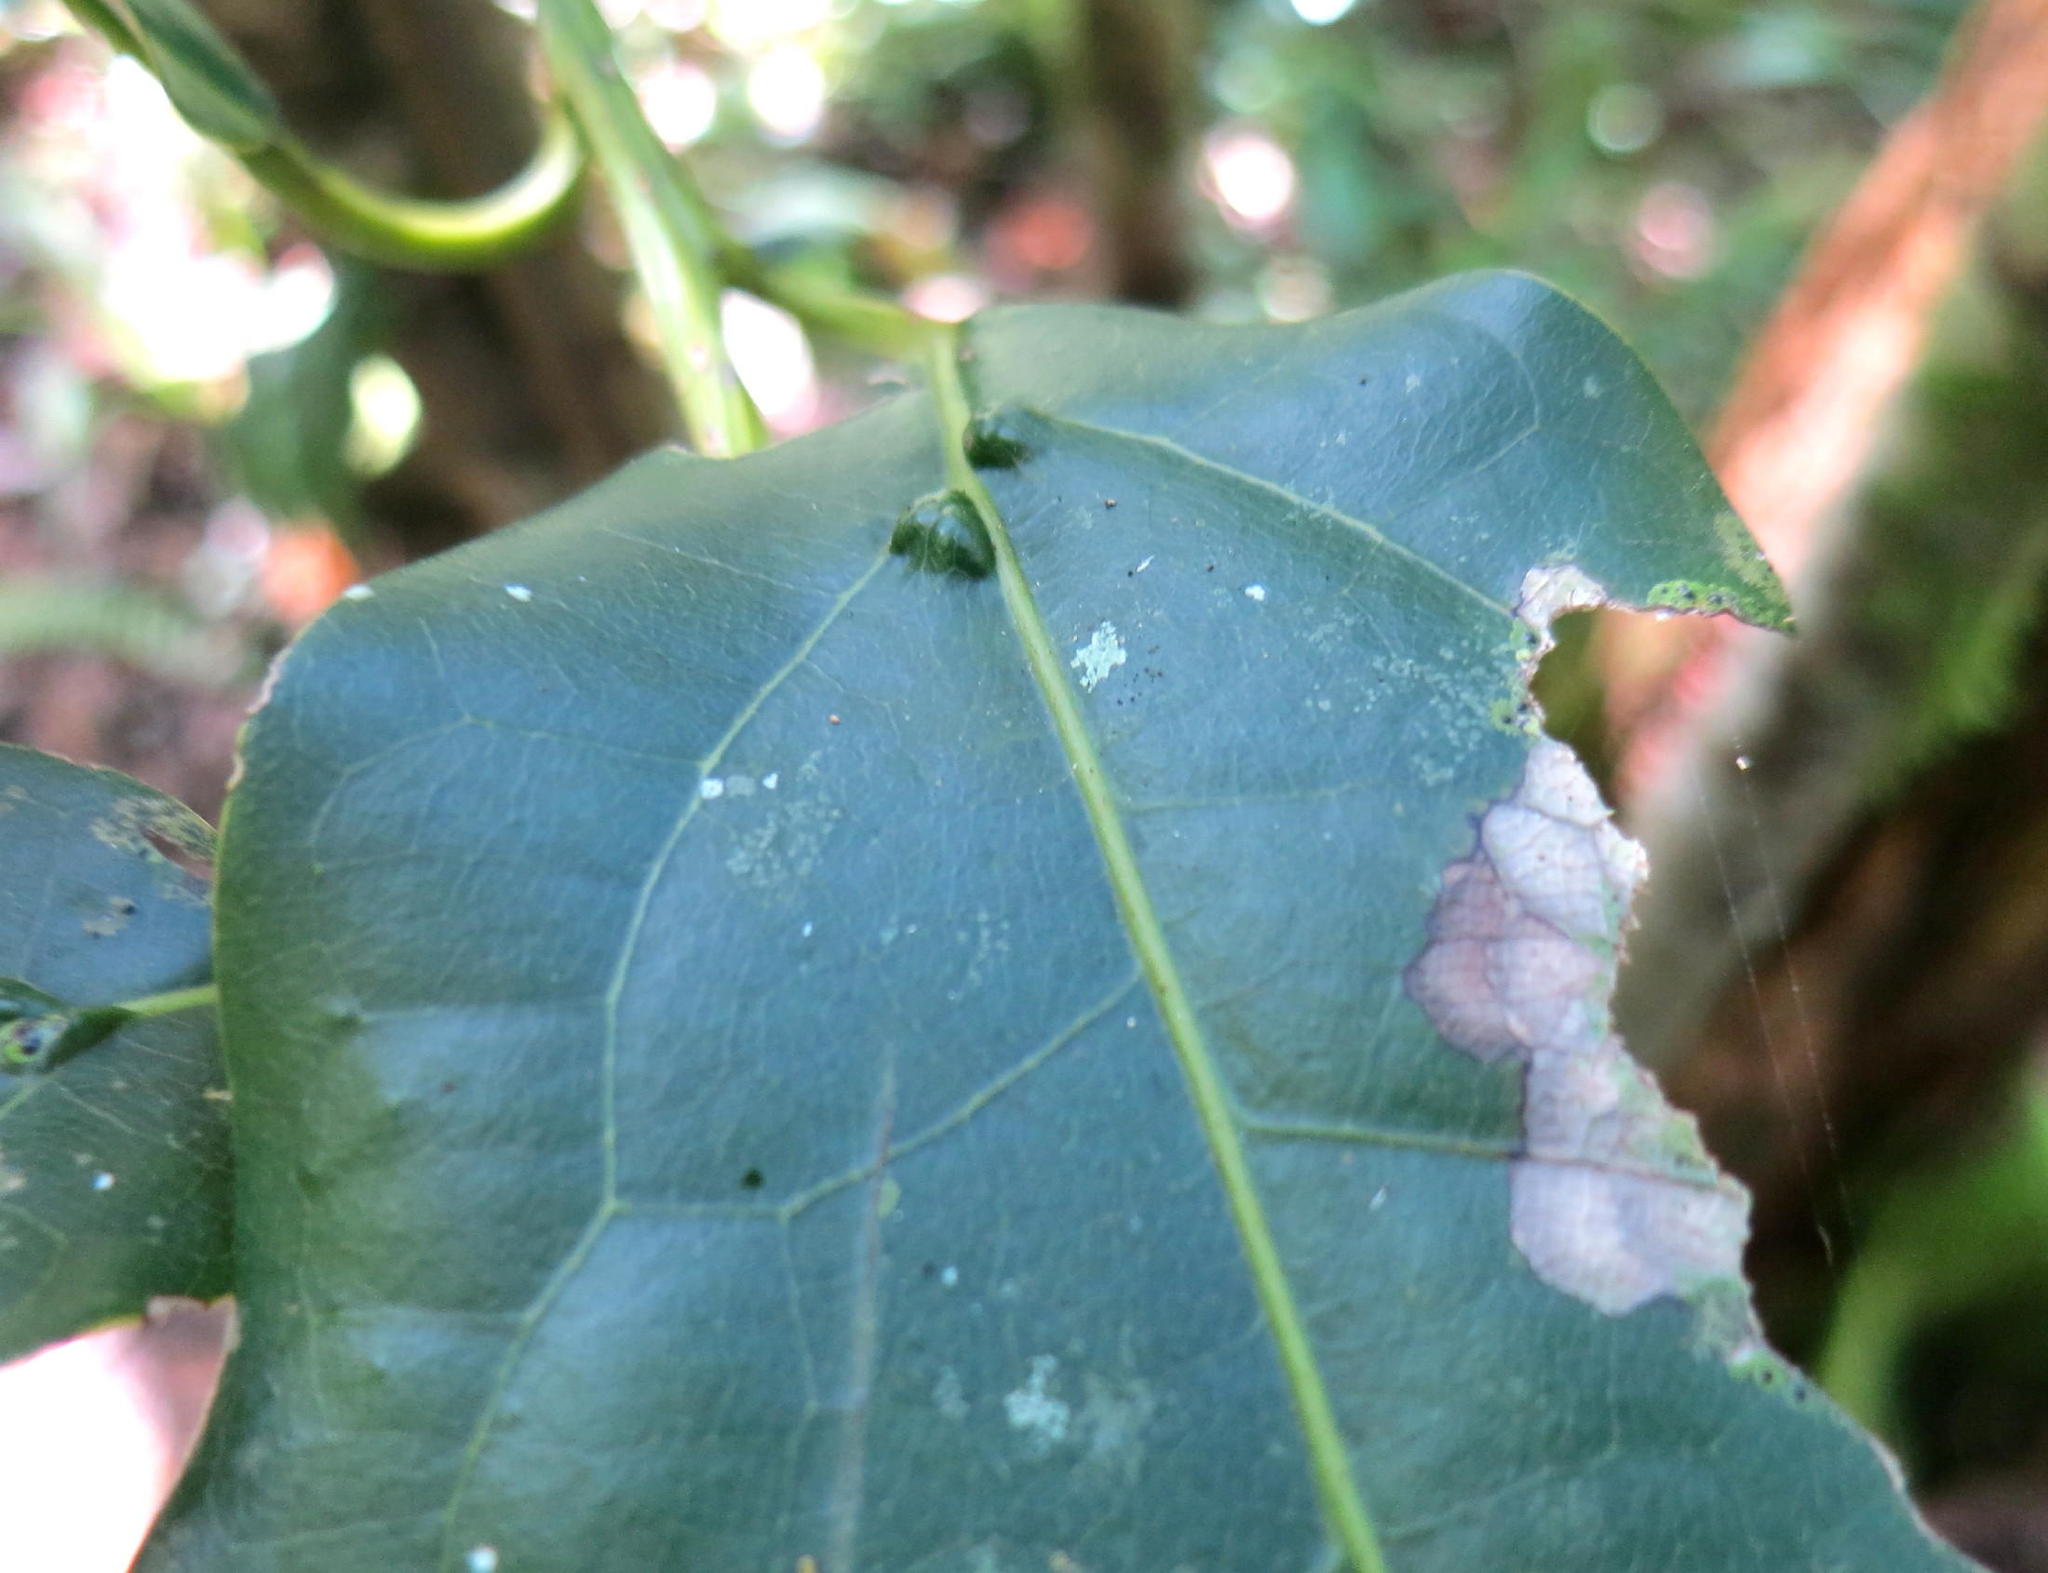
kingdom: Plantae
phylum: Tracheophyta
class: Magnoliopsida
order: Laurales
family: Lauraceae
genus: Ocotea
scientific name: Ocotea bullata
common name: Black stinkwood
